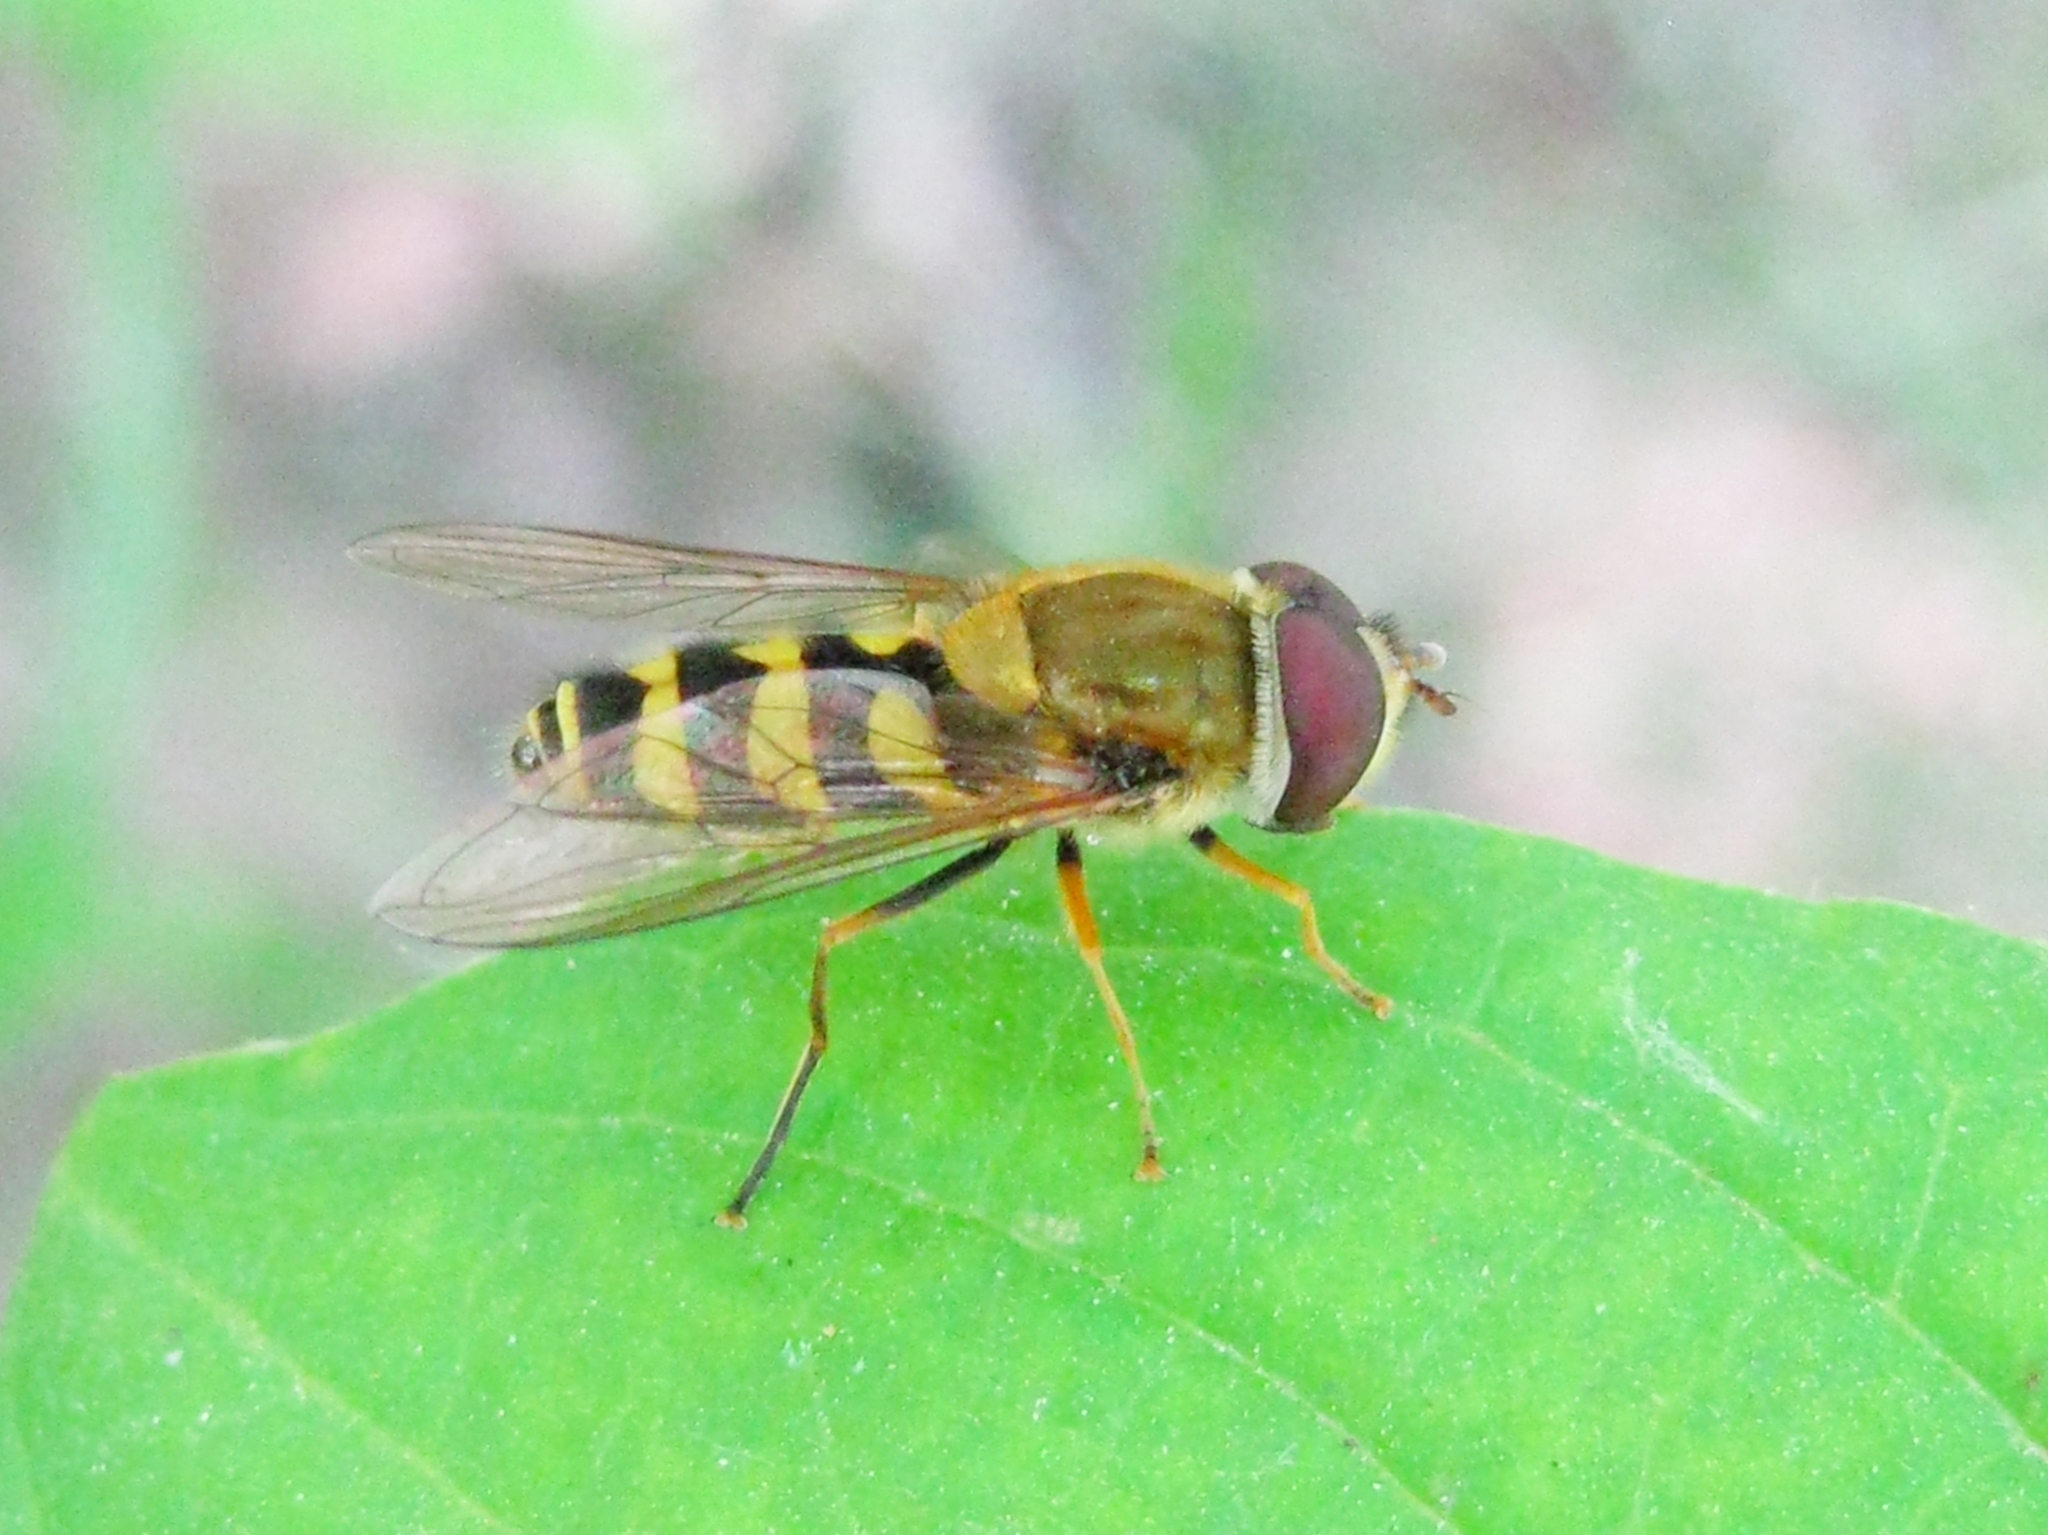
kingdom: Animalia
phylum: Arthropoda
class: Insecta
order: Diptera
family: Syrphidae
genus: Syrphus
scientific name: Syrphus
